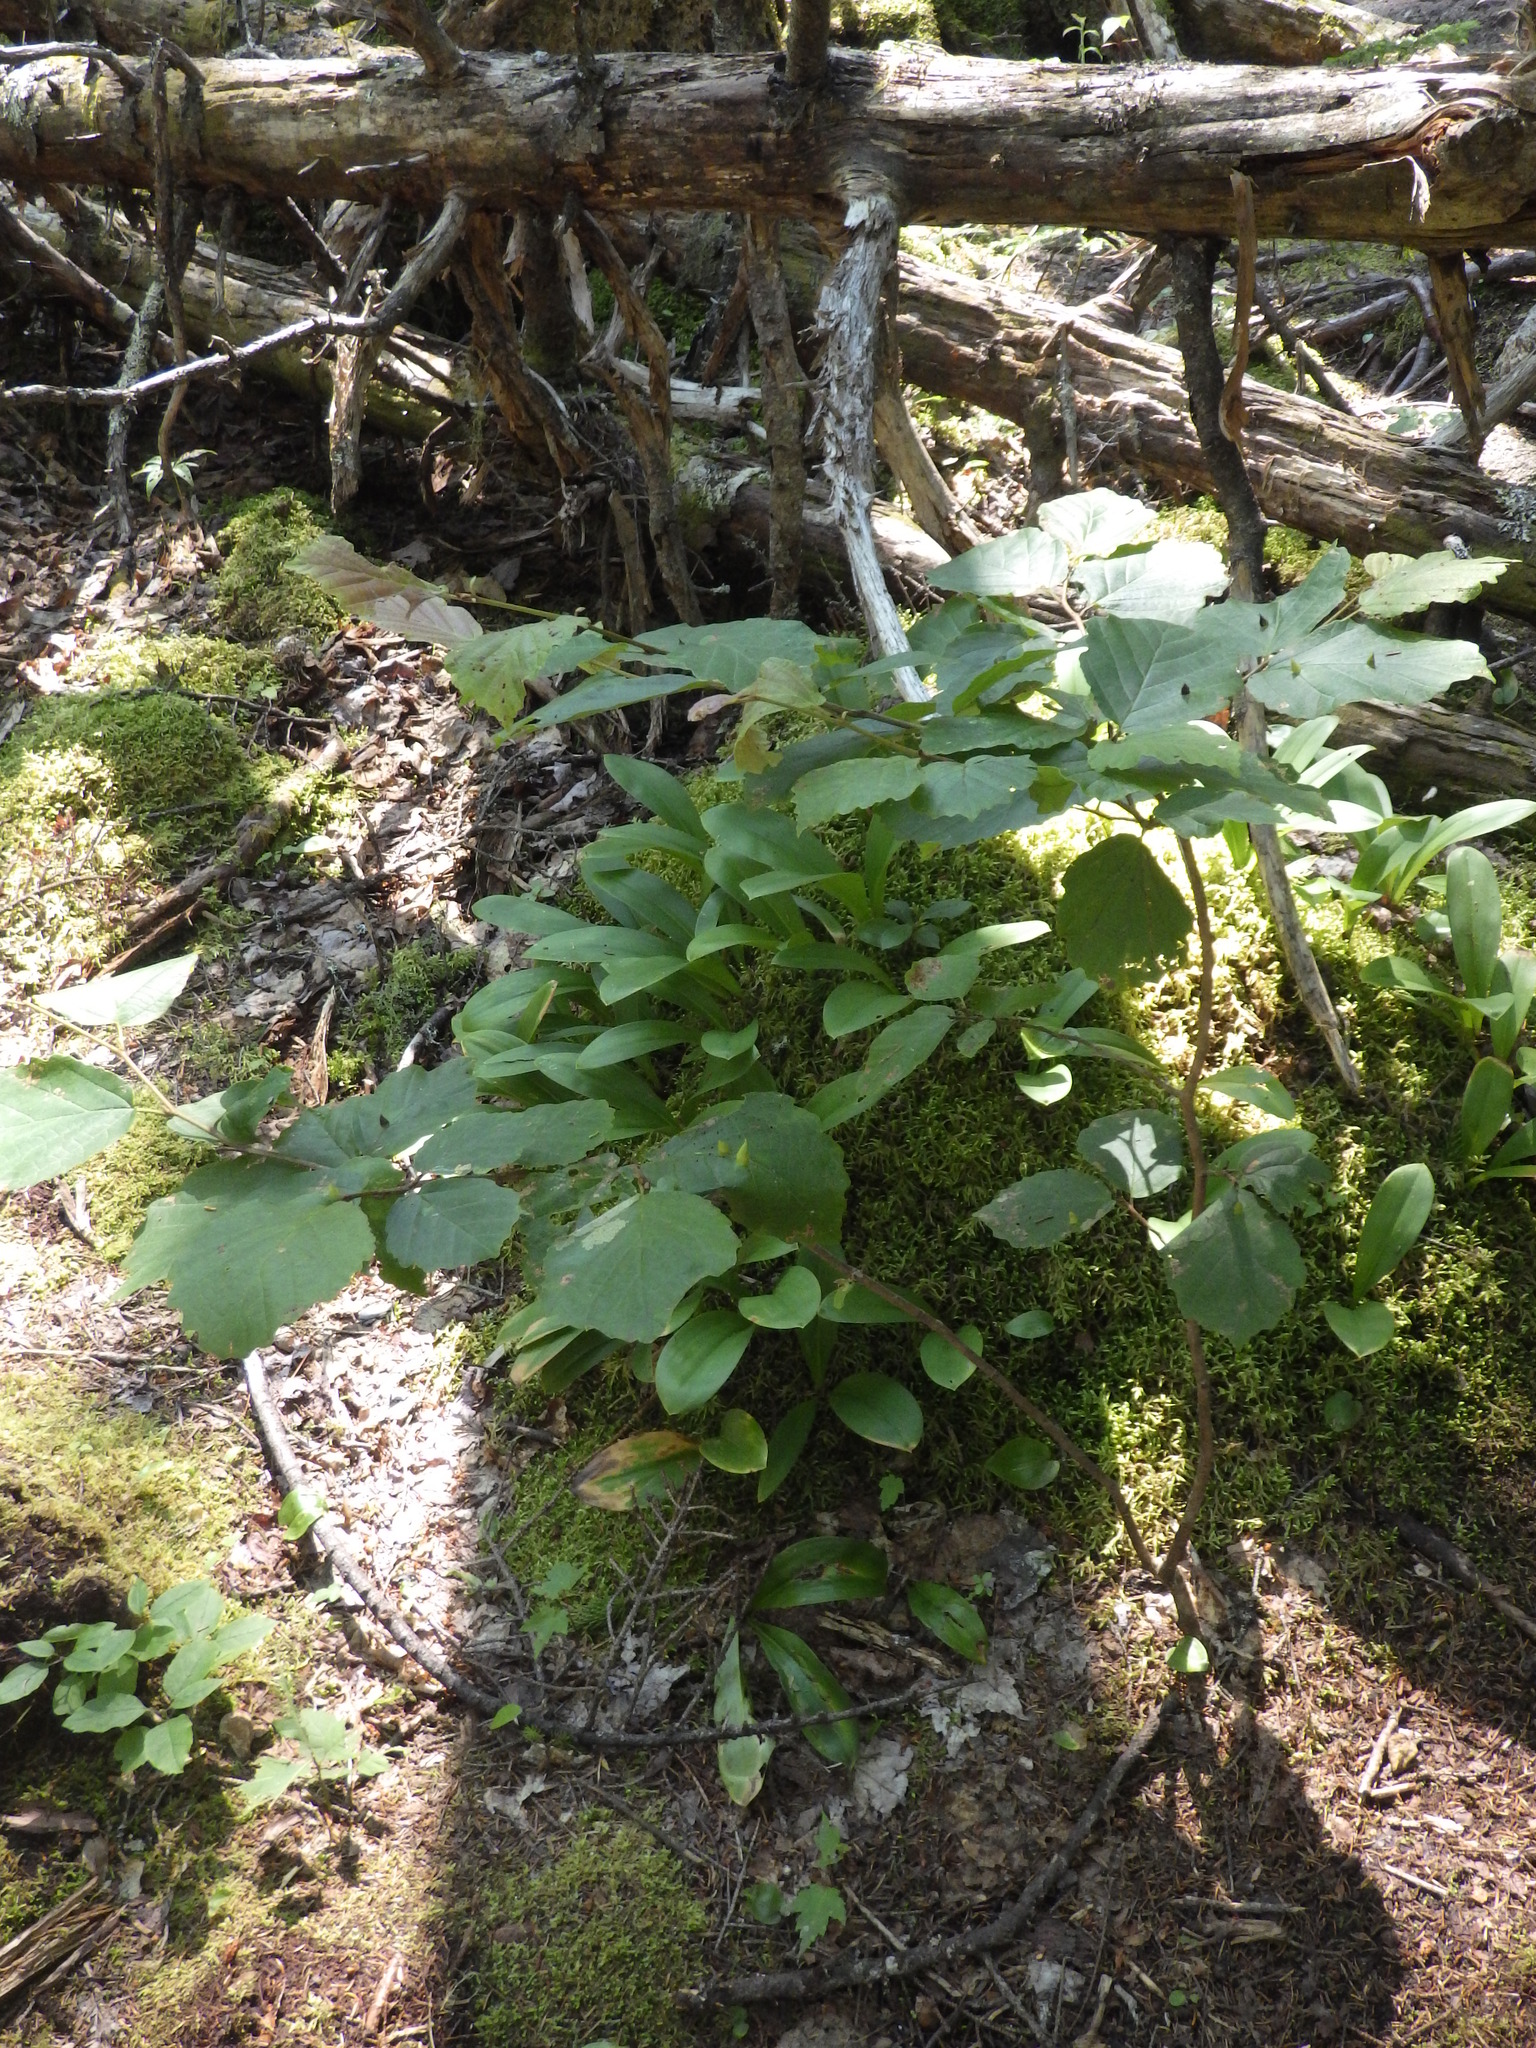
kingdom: Plantae
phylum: Tracheophyta
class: Magnoliopsida
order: Saxifragales
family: Hamamelidaceae
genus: Hamamelis
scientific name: Hamamelis virginiana
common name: Witch-hazel
